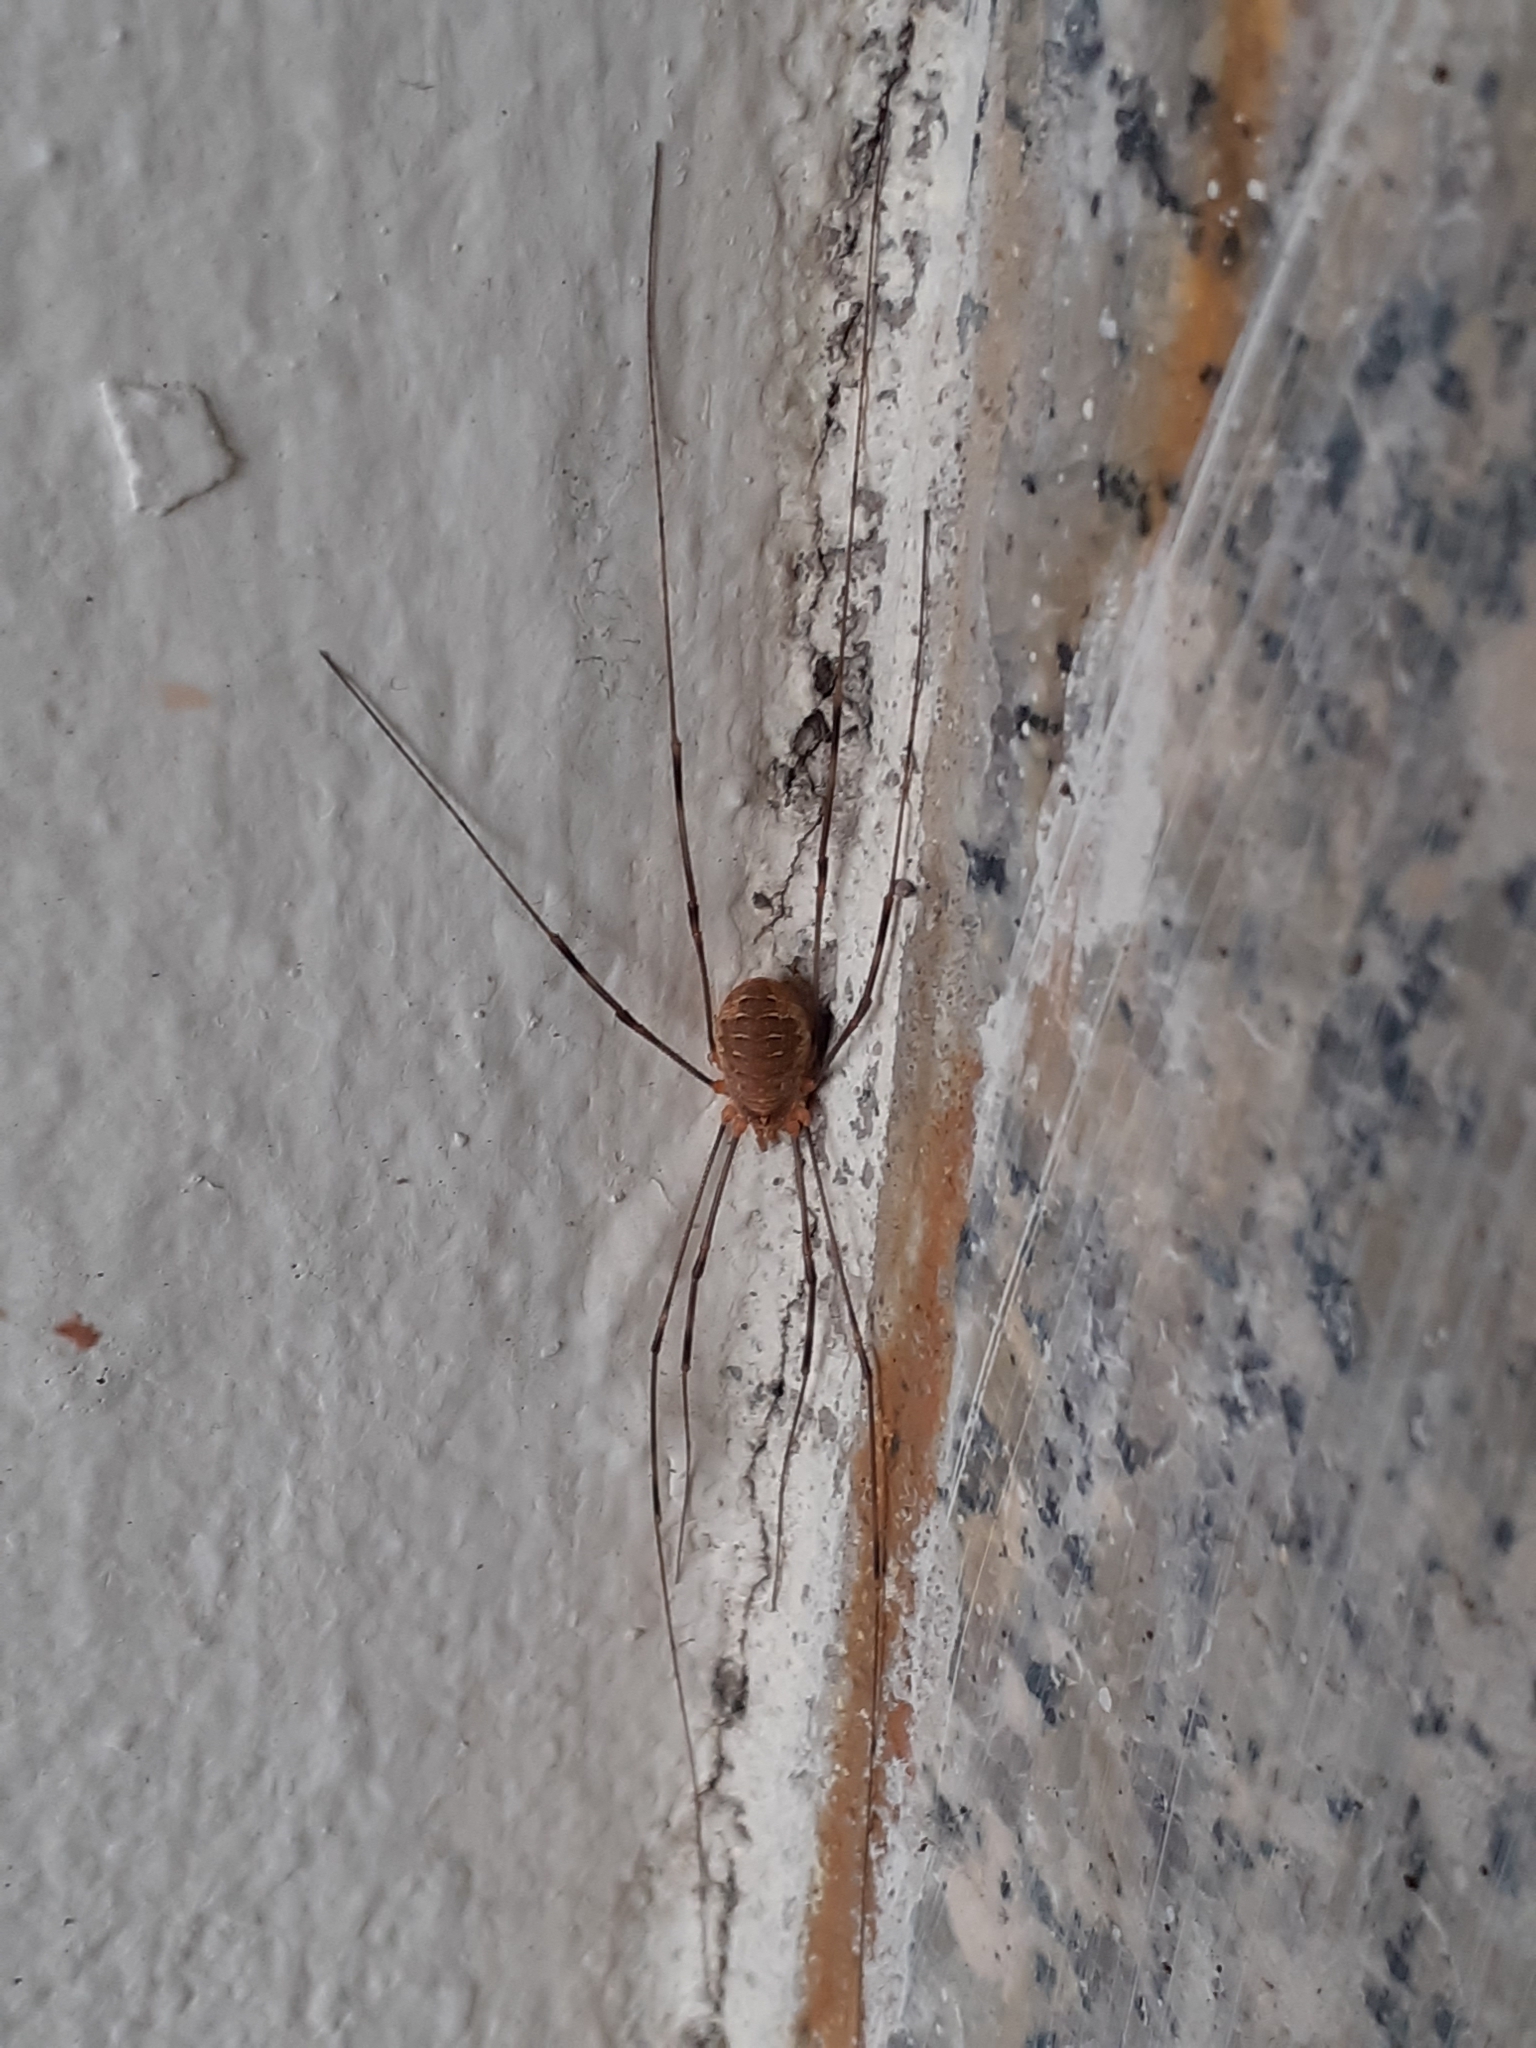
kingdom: Animalia
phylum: Arthropoda
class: Arachnida
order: Opiliones
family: Phalangiidae
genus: Opilio
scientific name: Opilio canestrinii
